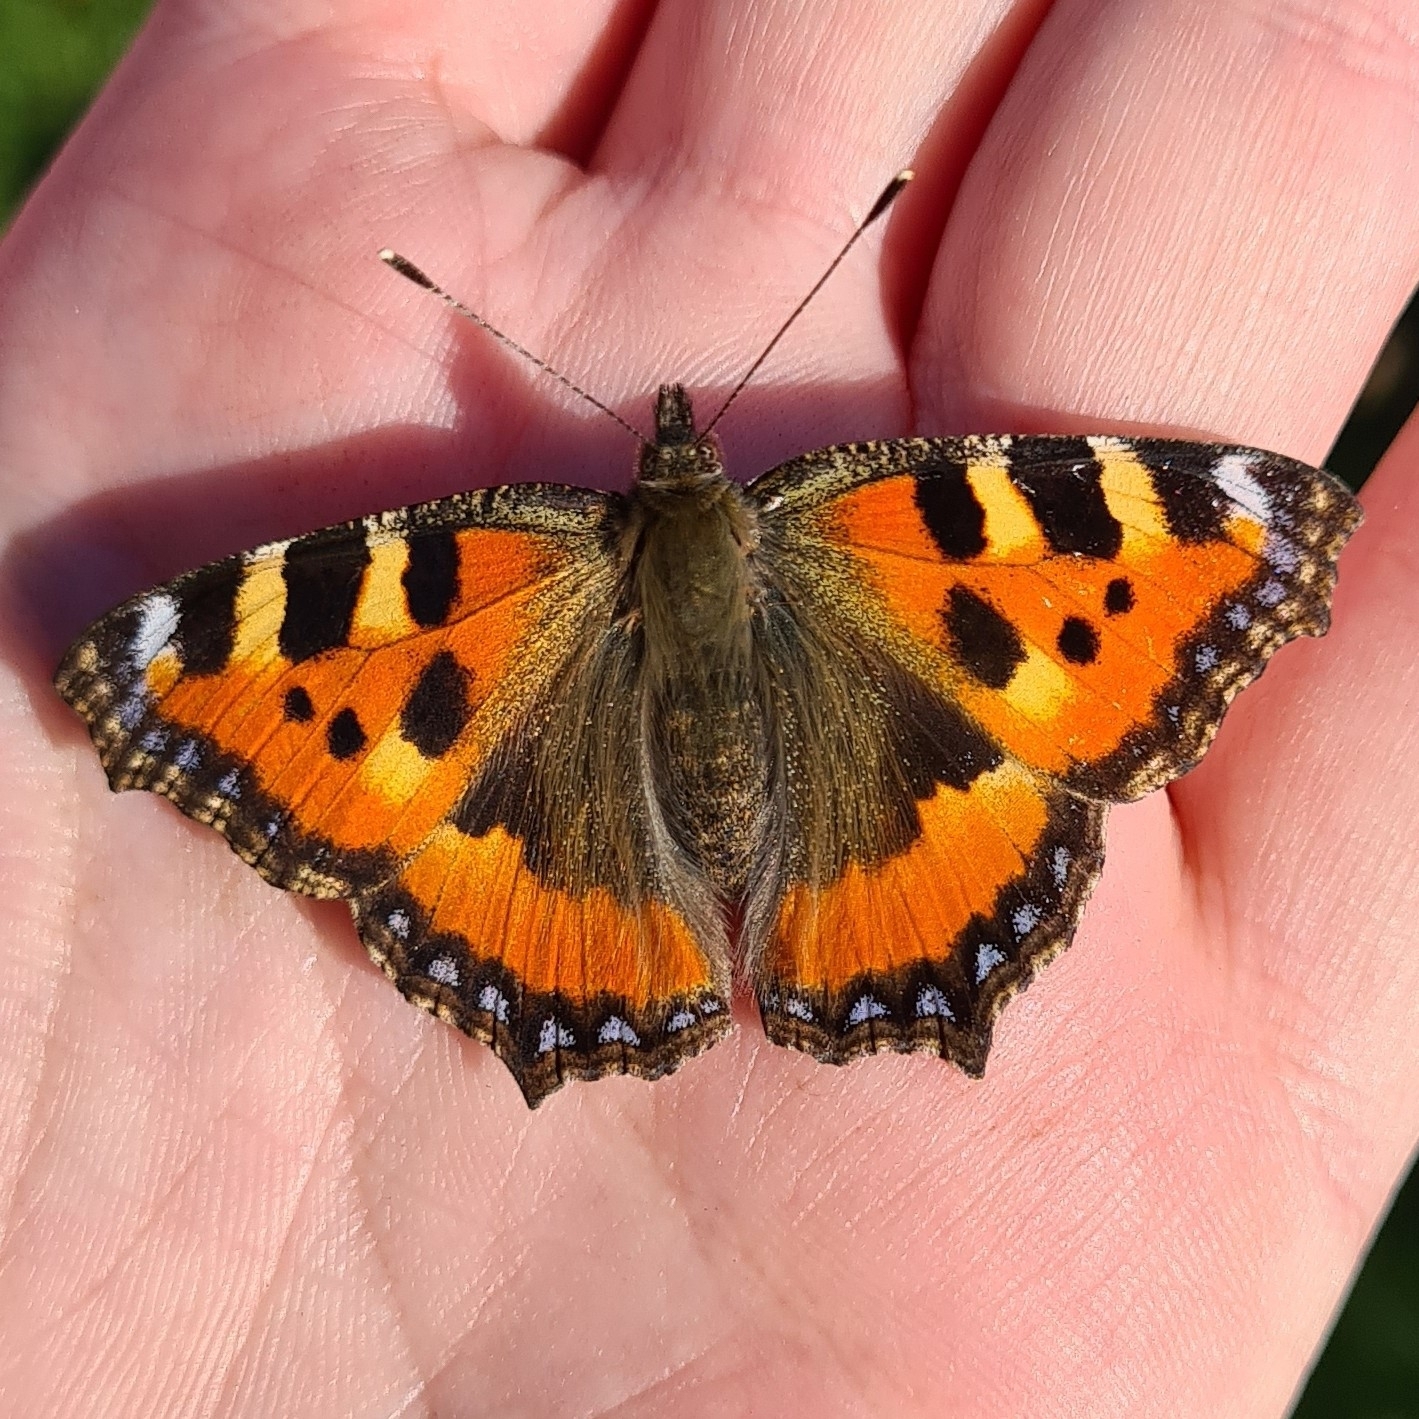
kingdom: Animalia
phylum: Arthropoda
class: Insecta
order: Lepidoptera
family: Nymphalidae
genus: Aglais
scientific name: Aglais urticae
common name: Small tortoiseshell
